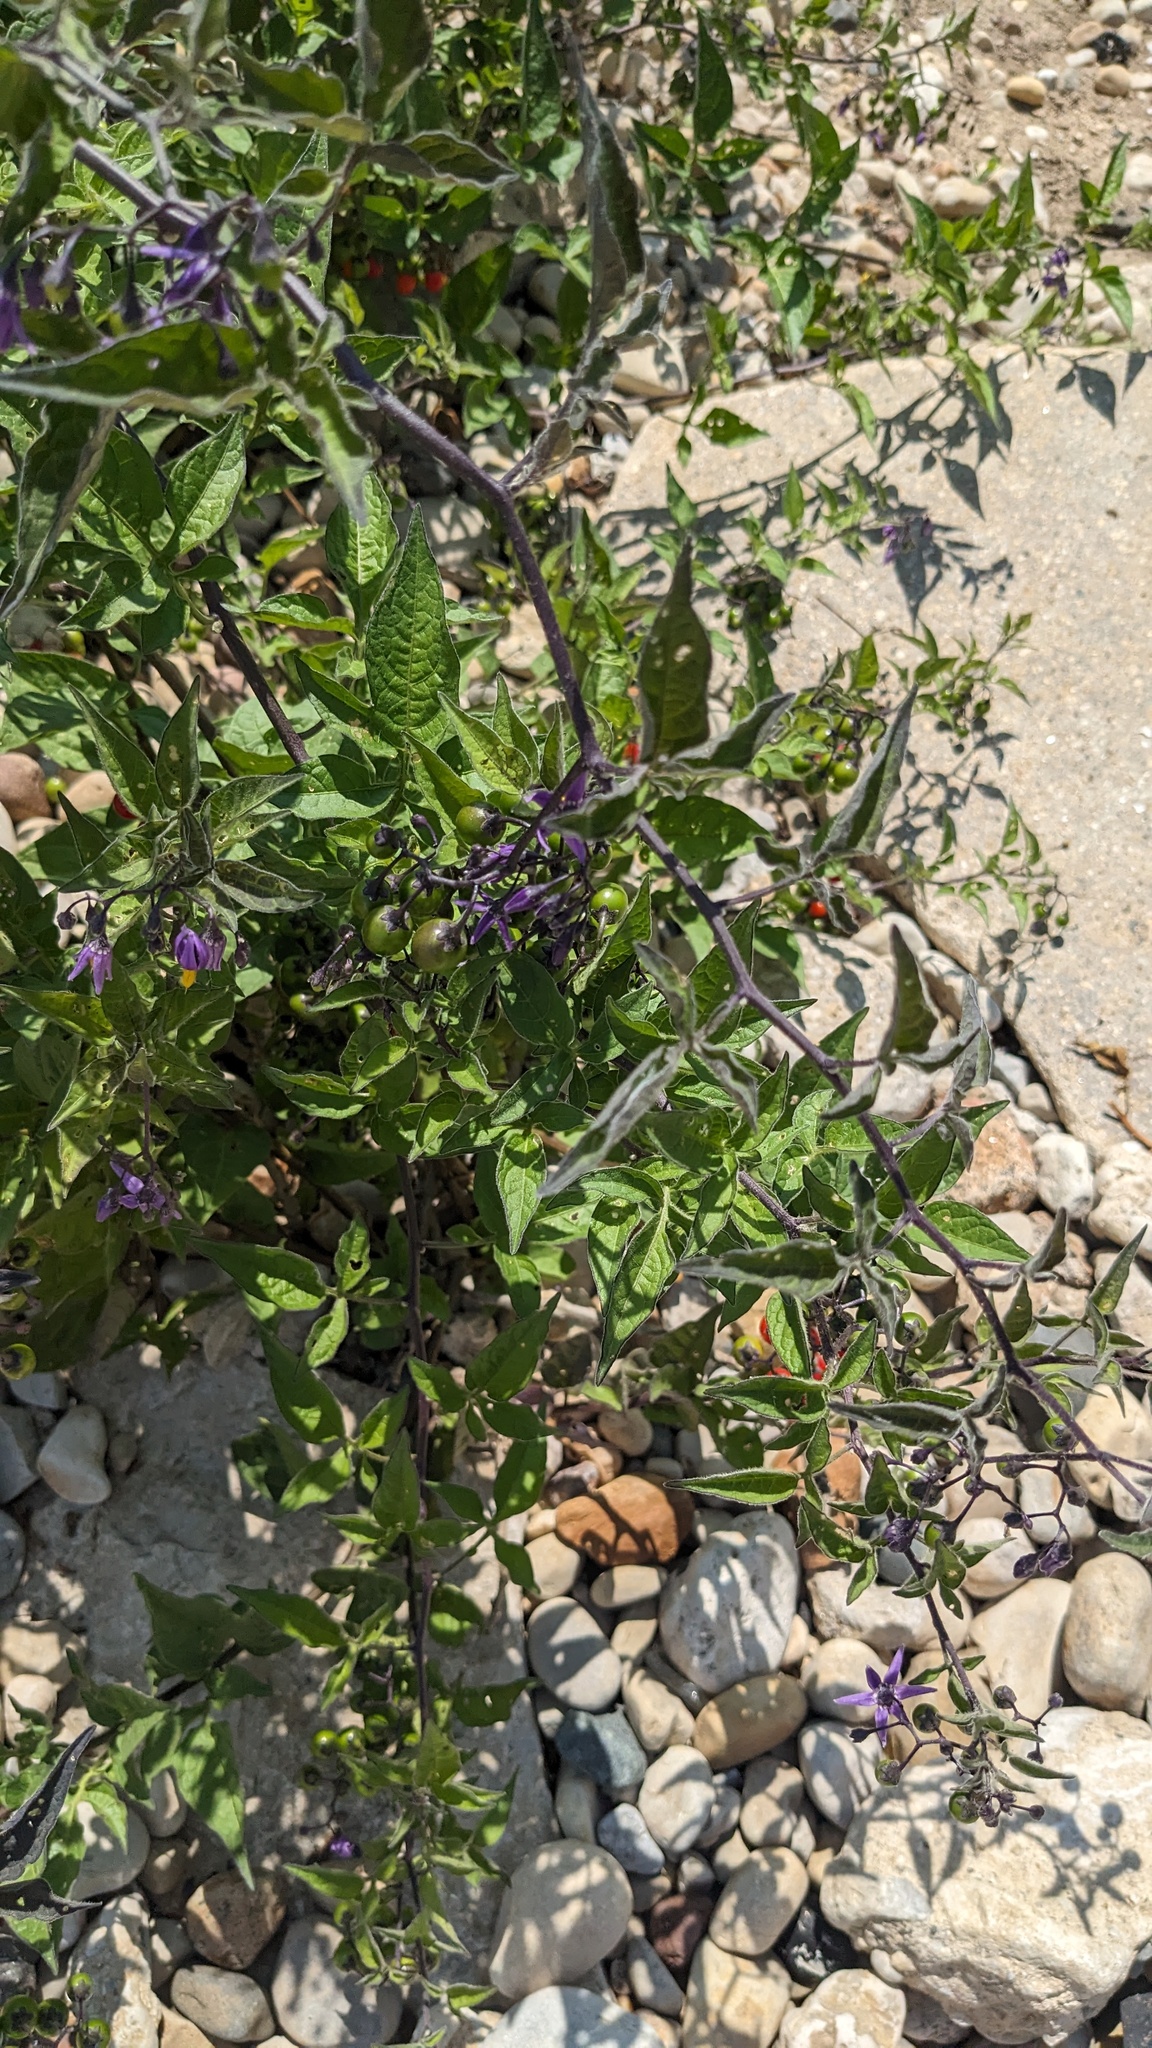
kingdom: Plantae
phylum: Tracheophyta
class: Magnoliopsida
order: Solanales
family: Solanaceae
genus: Solanum
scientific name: Solanum dulcamara
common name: Climbing nightshade
